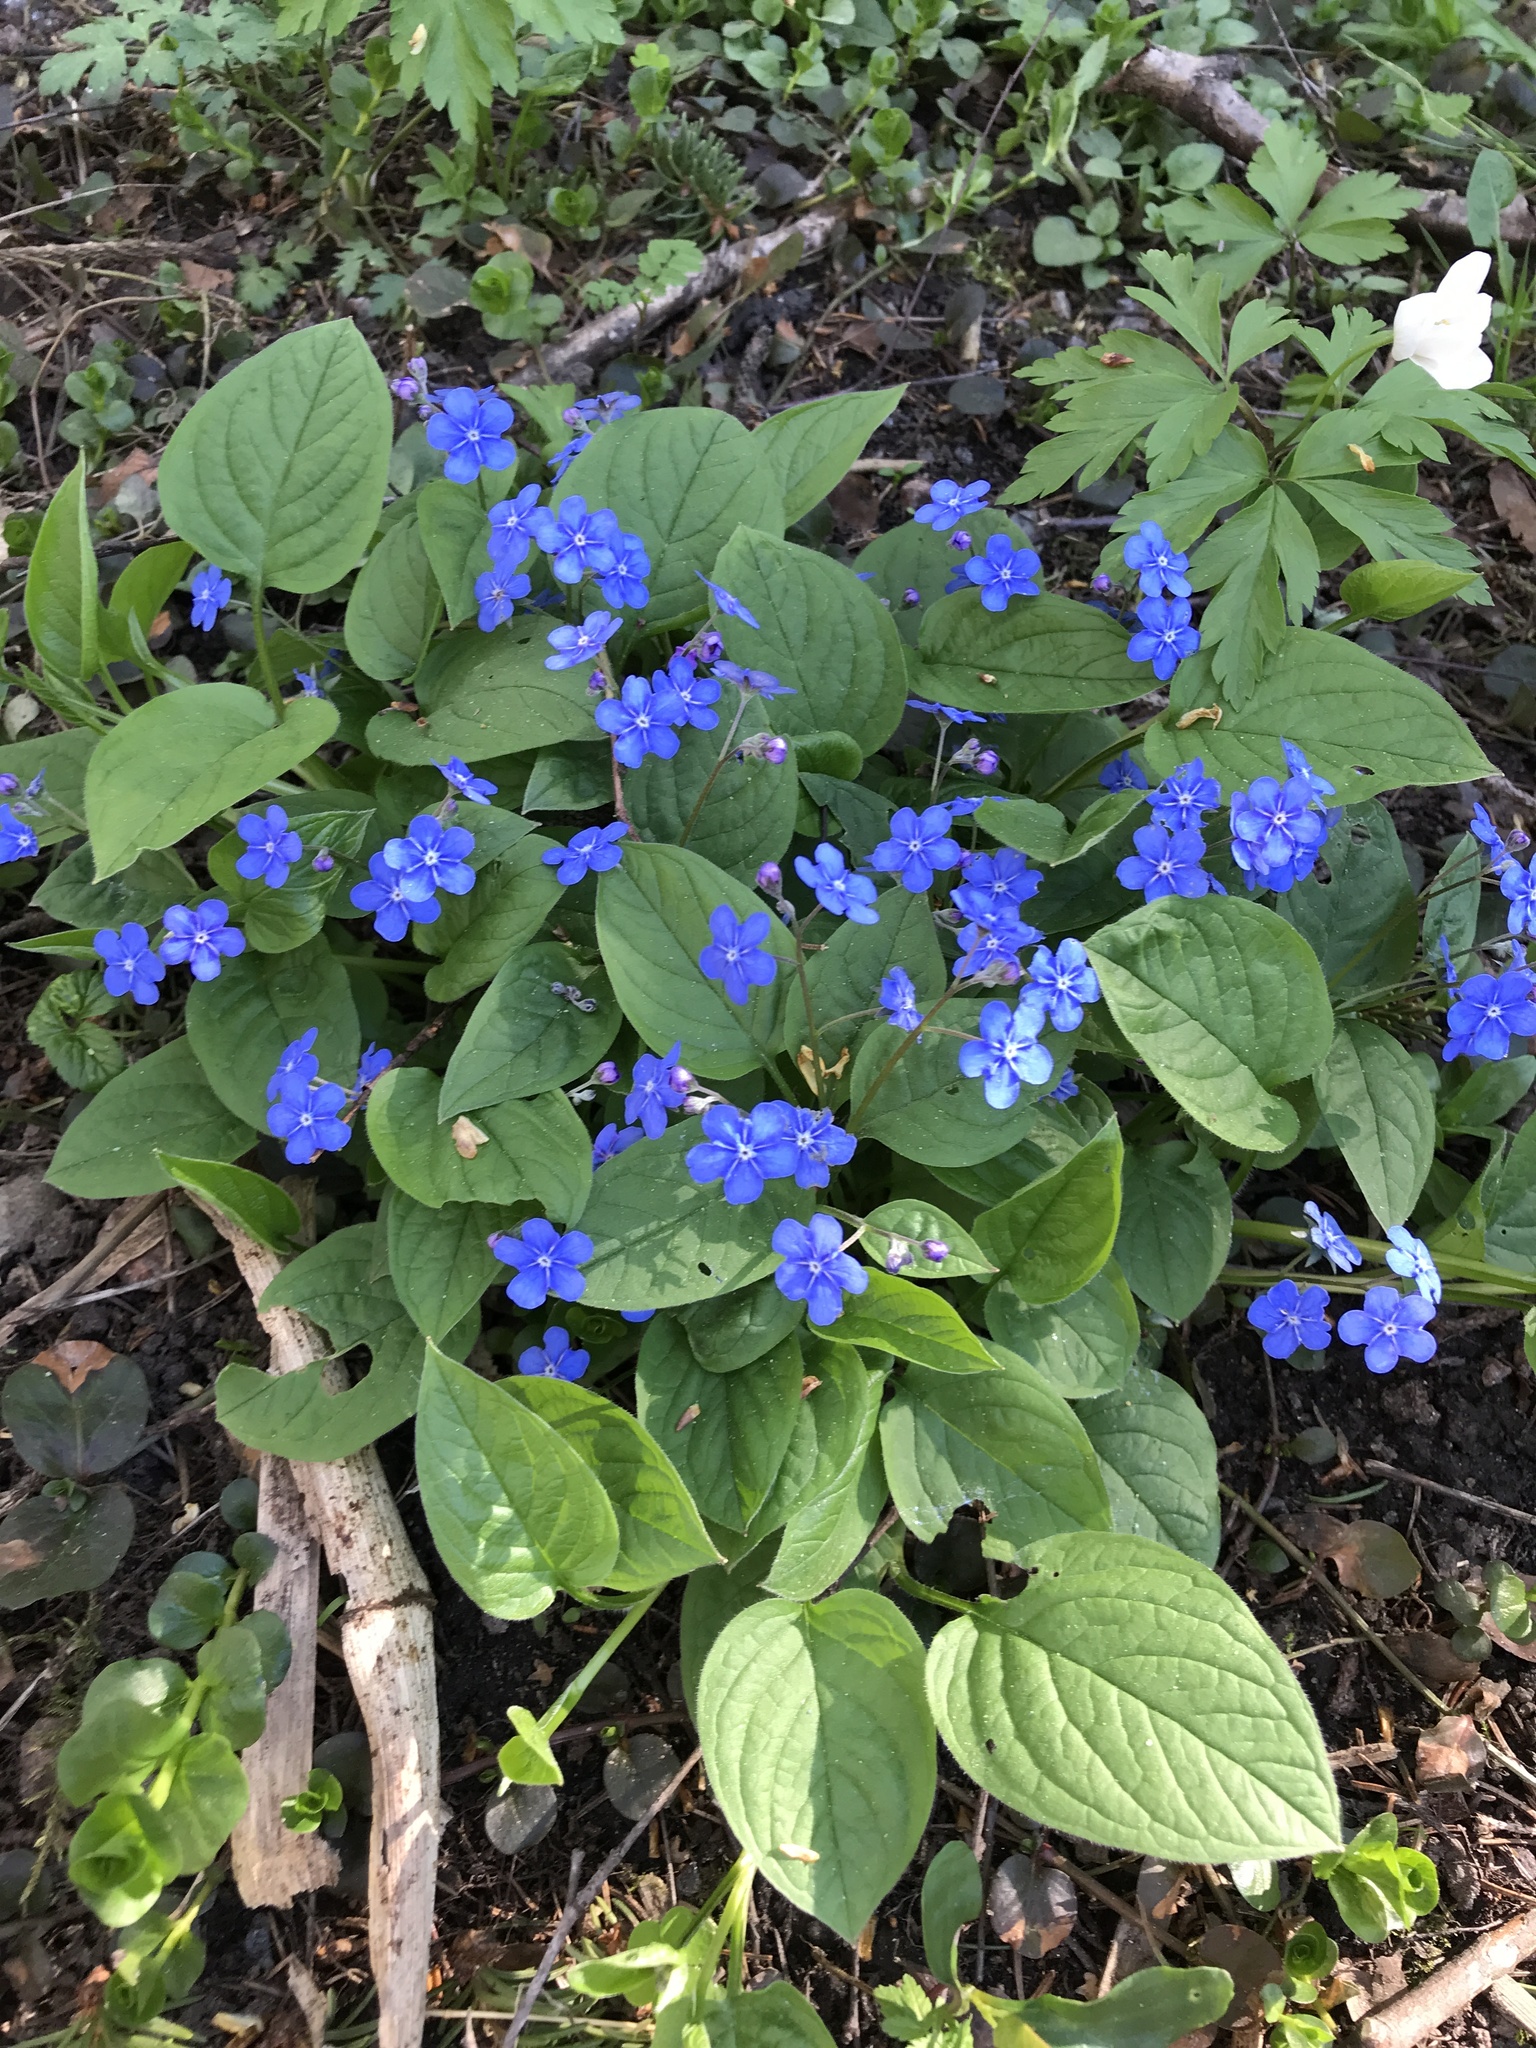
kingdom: Plantae
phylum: Tracheophyta
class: Magnoliopsida
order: Boraginales
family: Boraginaceae
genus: Omphalodes
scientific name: Omphalodes verna
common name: Blue-eyed-mary
